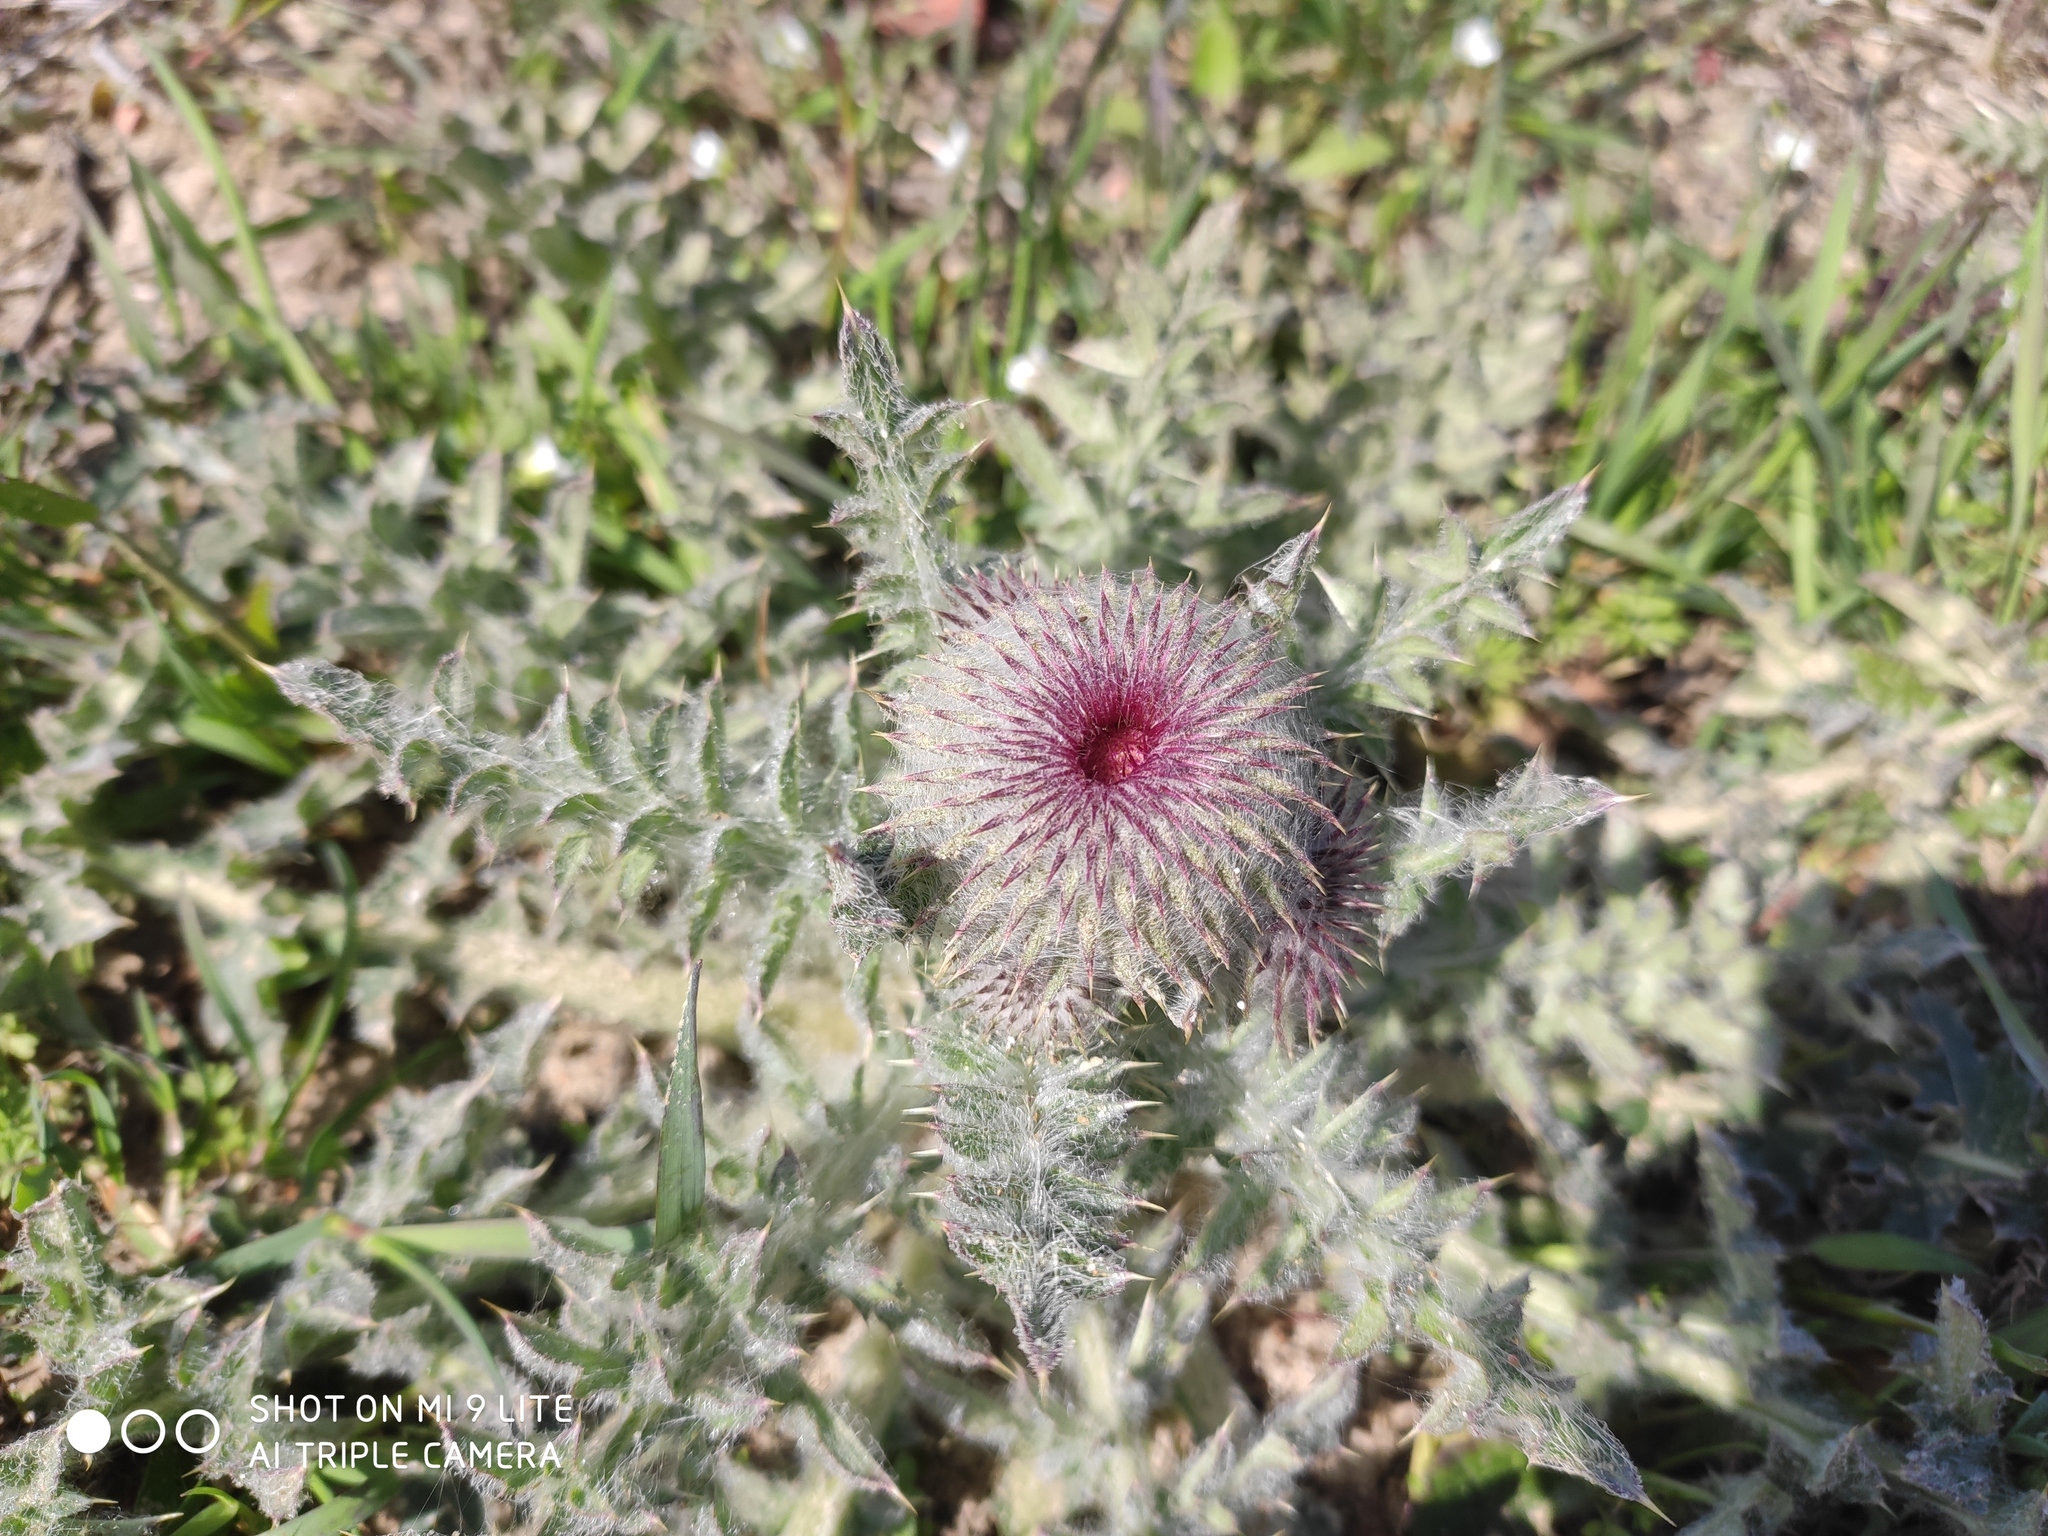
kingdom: Plantae
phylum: Tracheophyta
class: Magnoliopsida
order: Asterales
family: Asteraceae
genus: Carduus
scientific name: Carduus uncinatus
